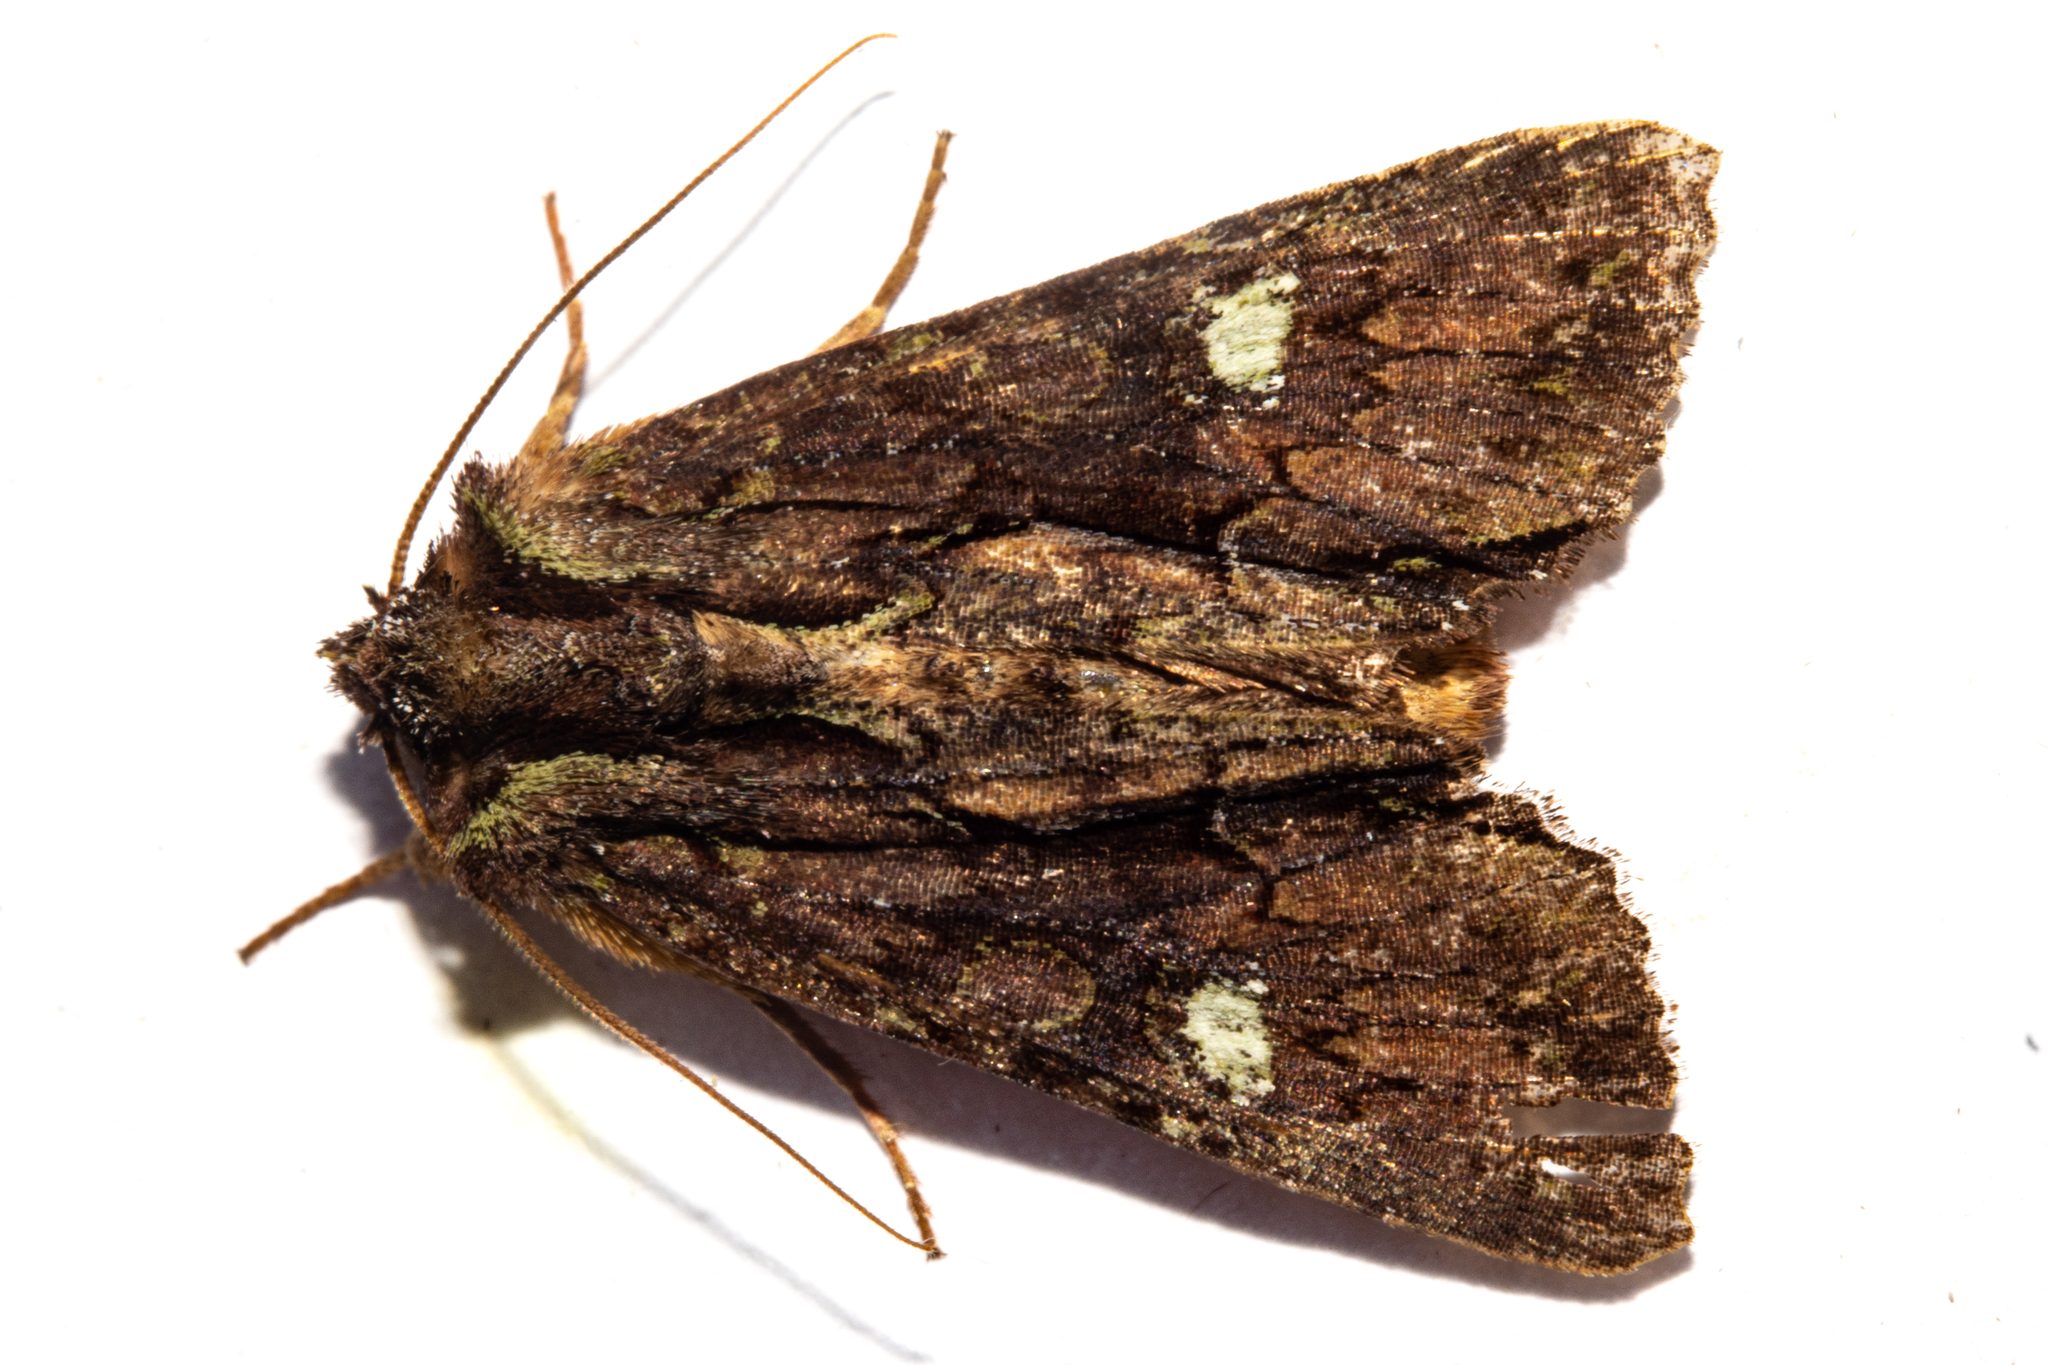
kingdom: Animalia
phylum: Arthropoda
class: Insecta
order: Lepidoptera
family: Noctuidae
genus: Meterana
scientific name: Meterana diatmeta
